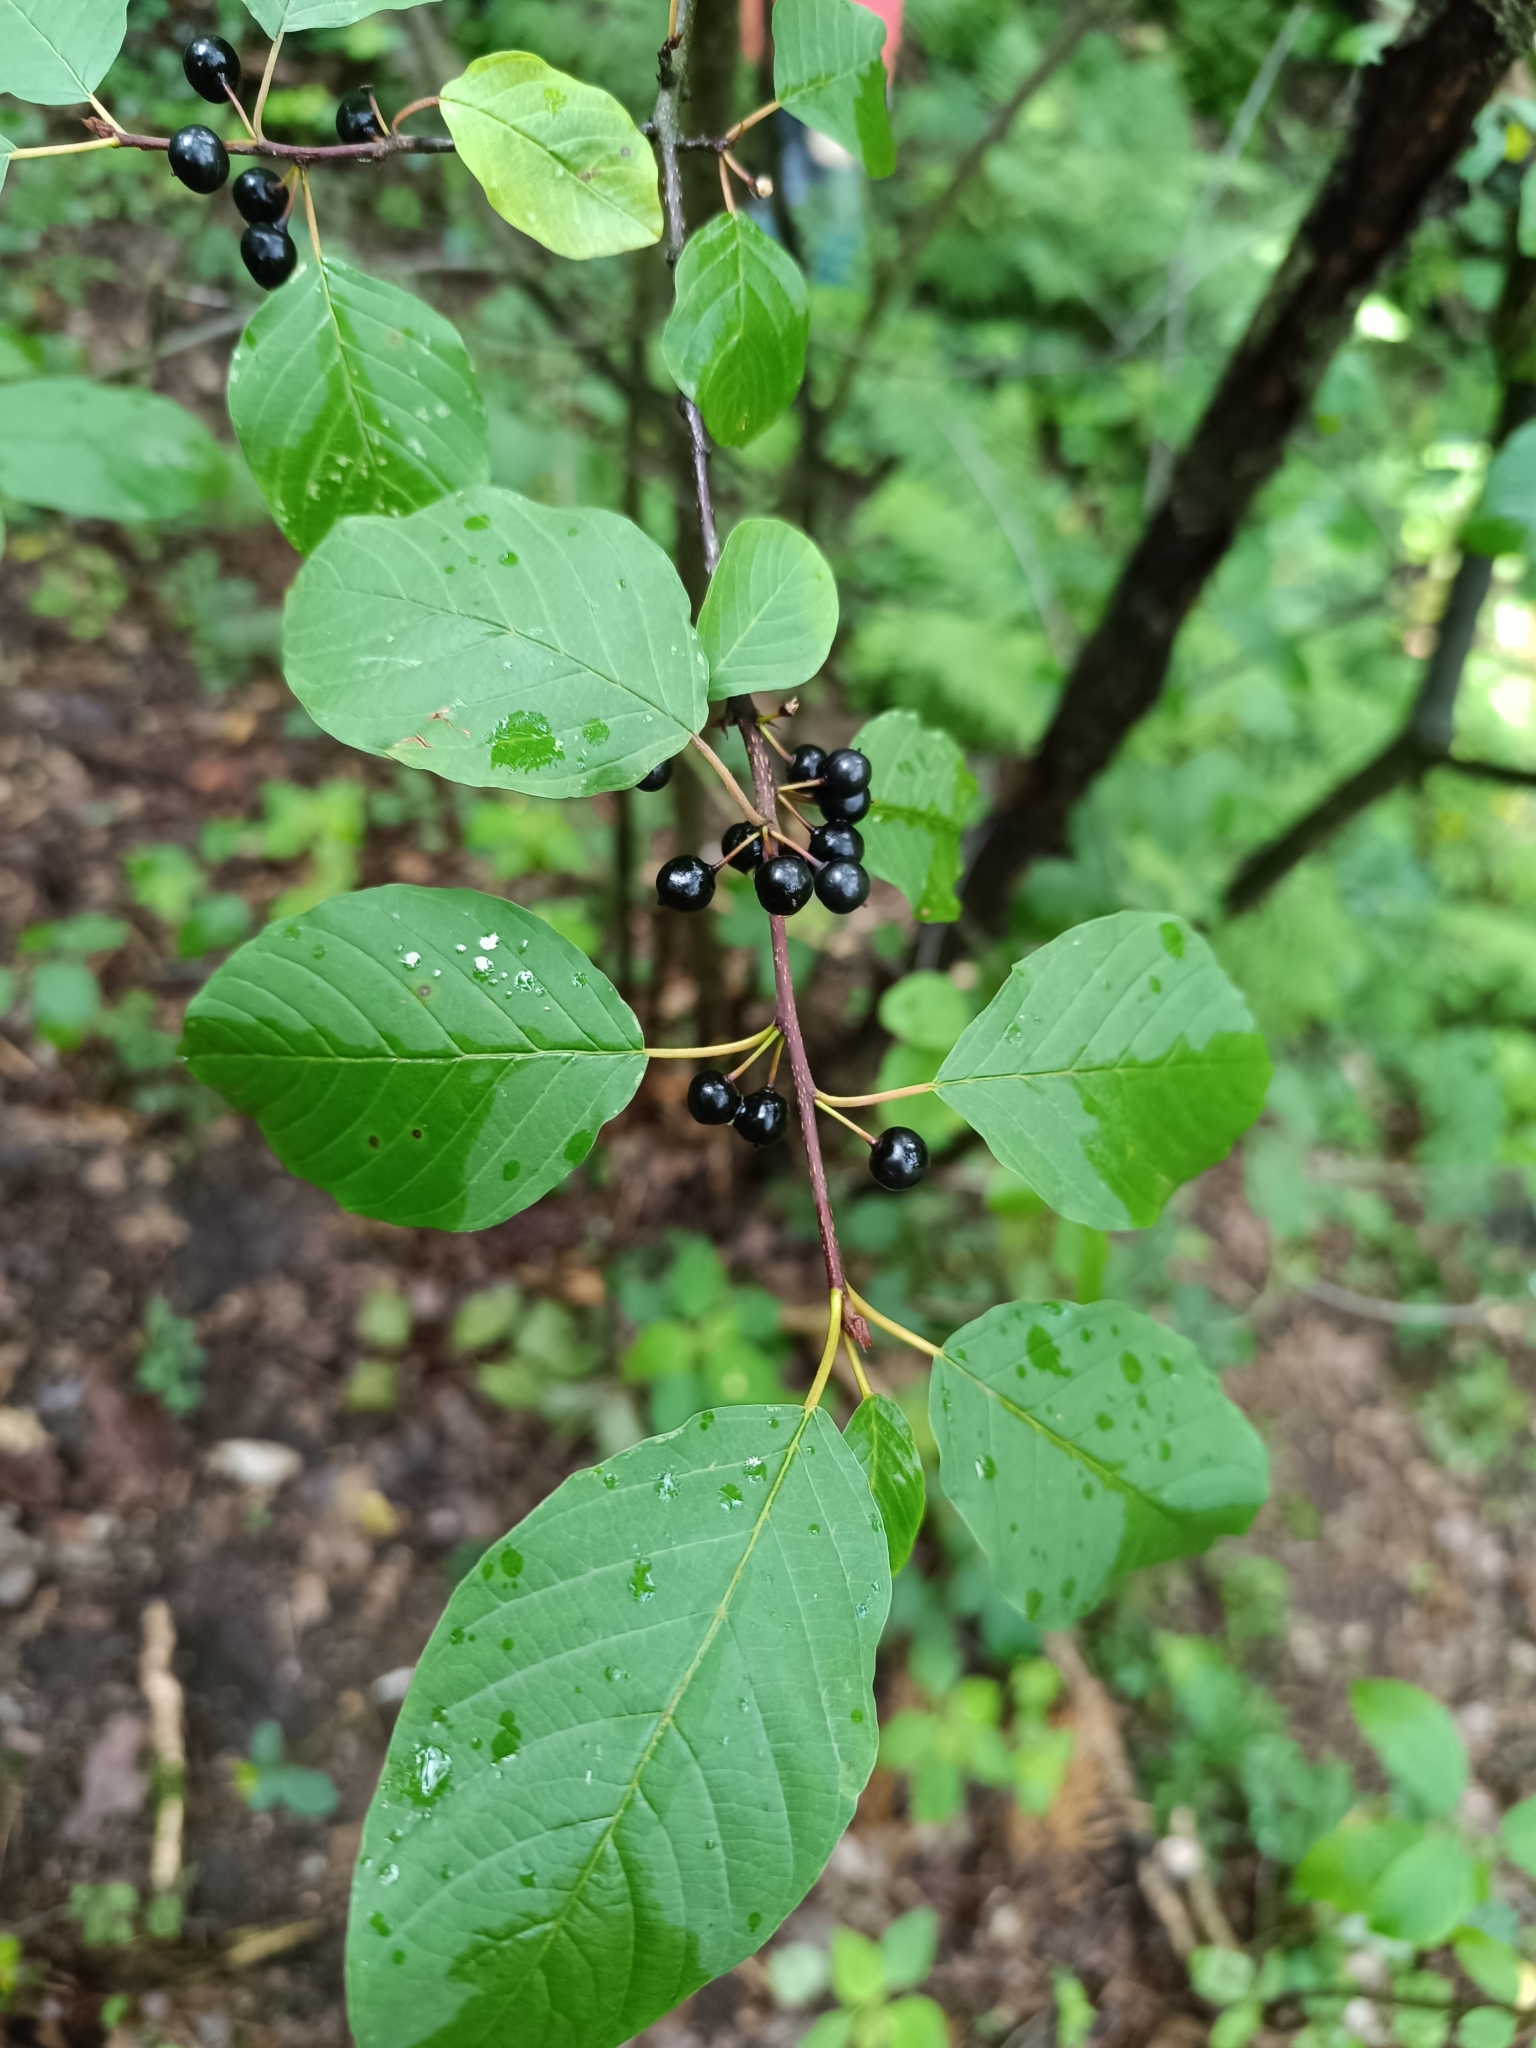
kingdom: Plantae
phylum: Tracheophyta
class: Magnoliopsida
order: Rosales
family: Rhamnaceae
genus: Frangula
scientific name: Frangula alnus
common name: Alder buckthorn
